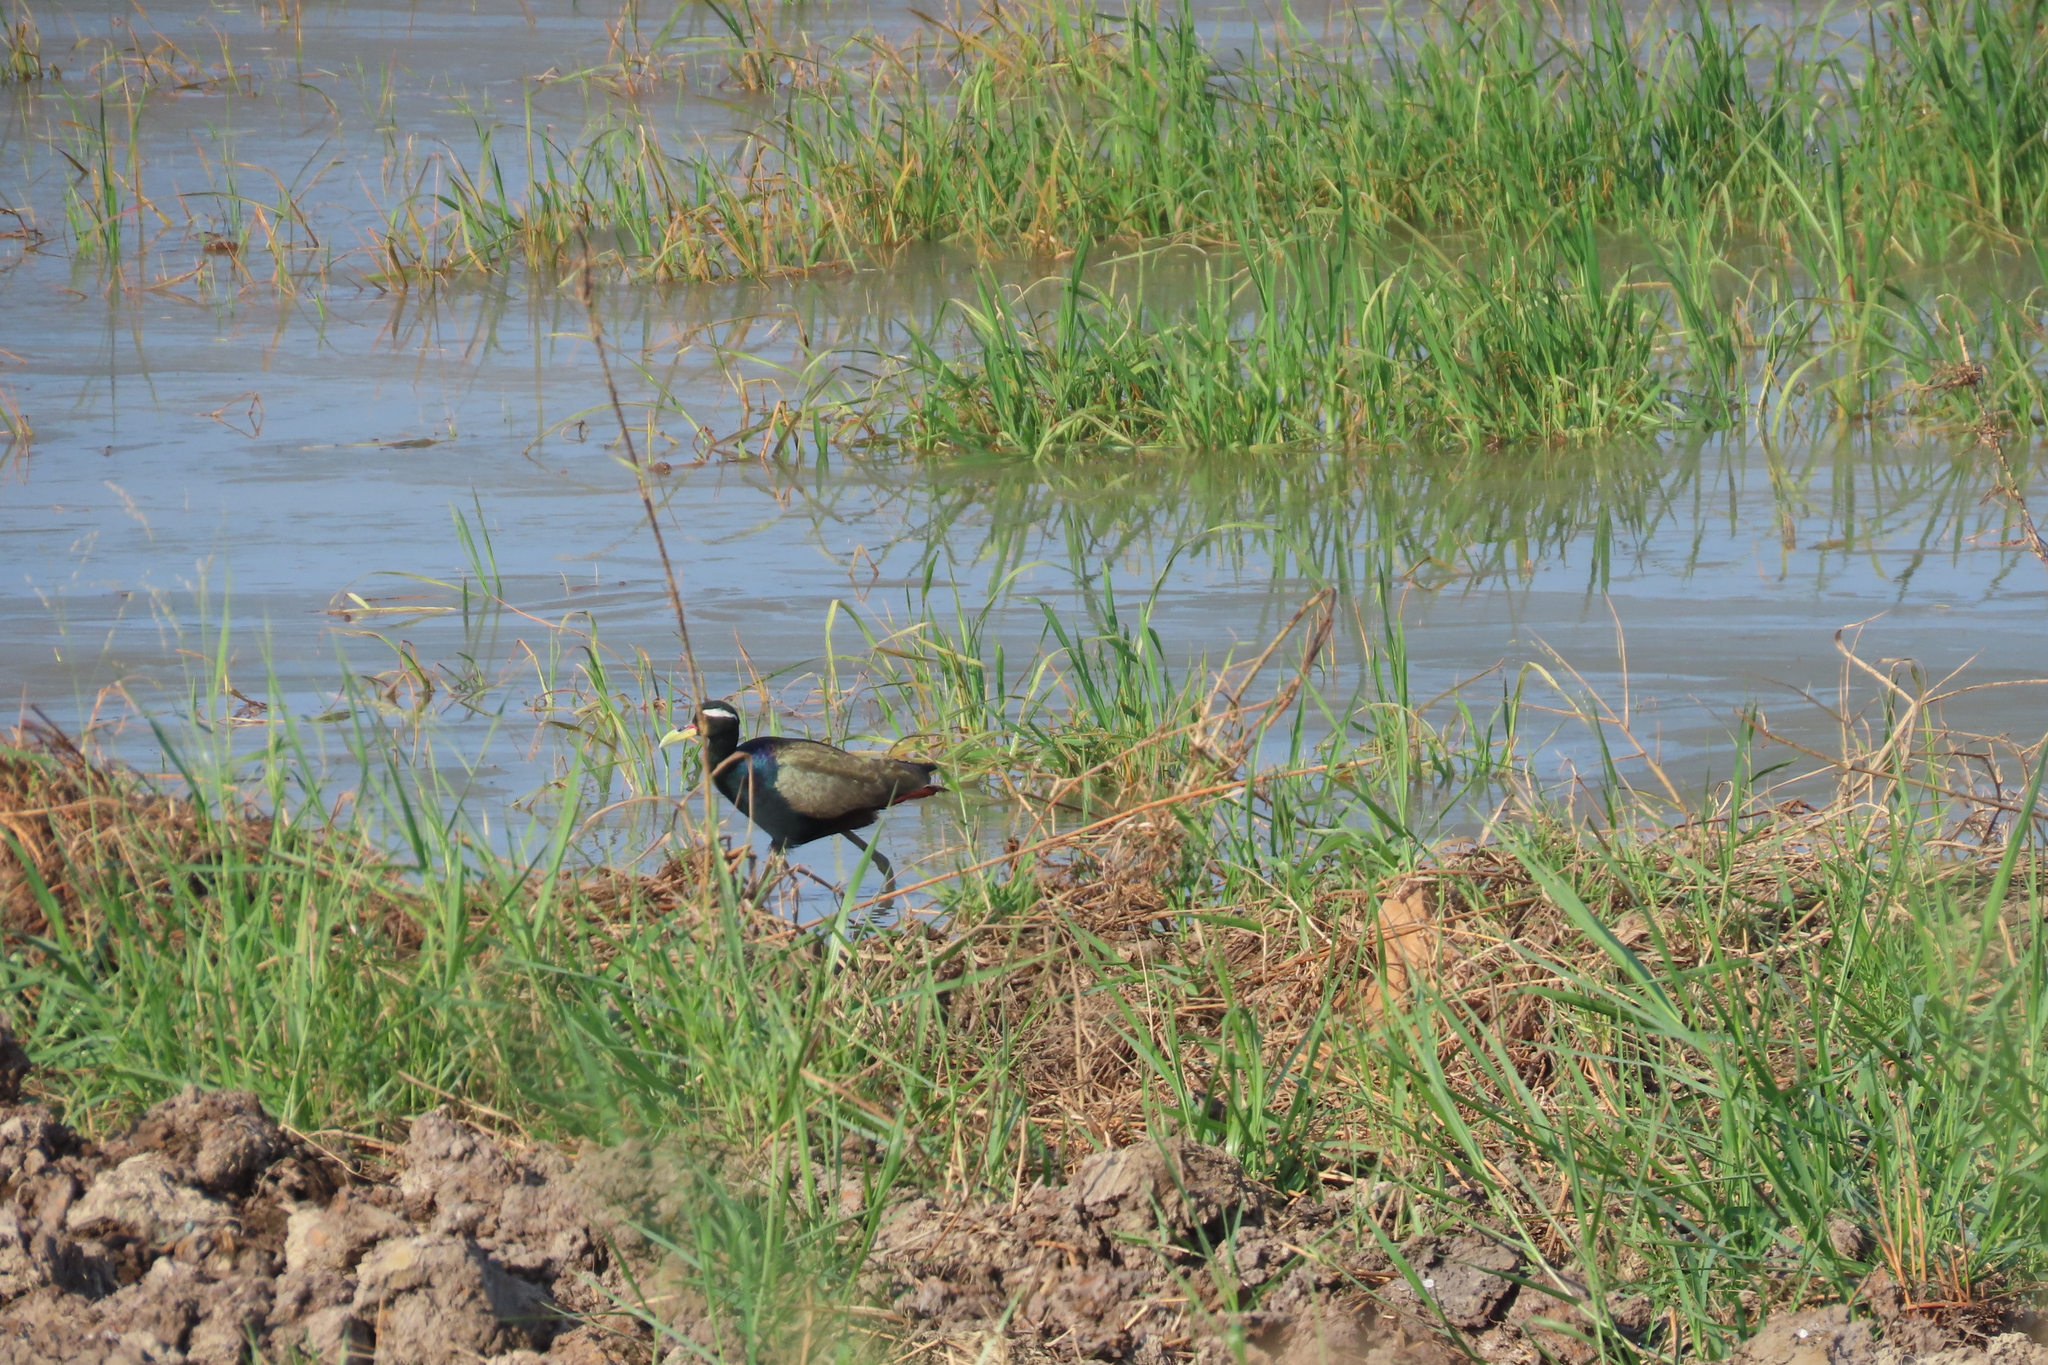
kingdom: Animalia
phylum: Chordata
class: Aves
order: Charadriiformes
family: Jacanidae
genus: Metopidius
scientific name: Metopidius indicus
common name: Bronze-winged jacana
